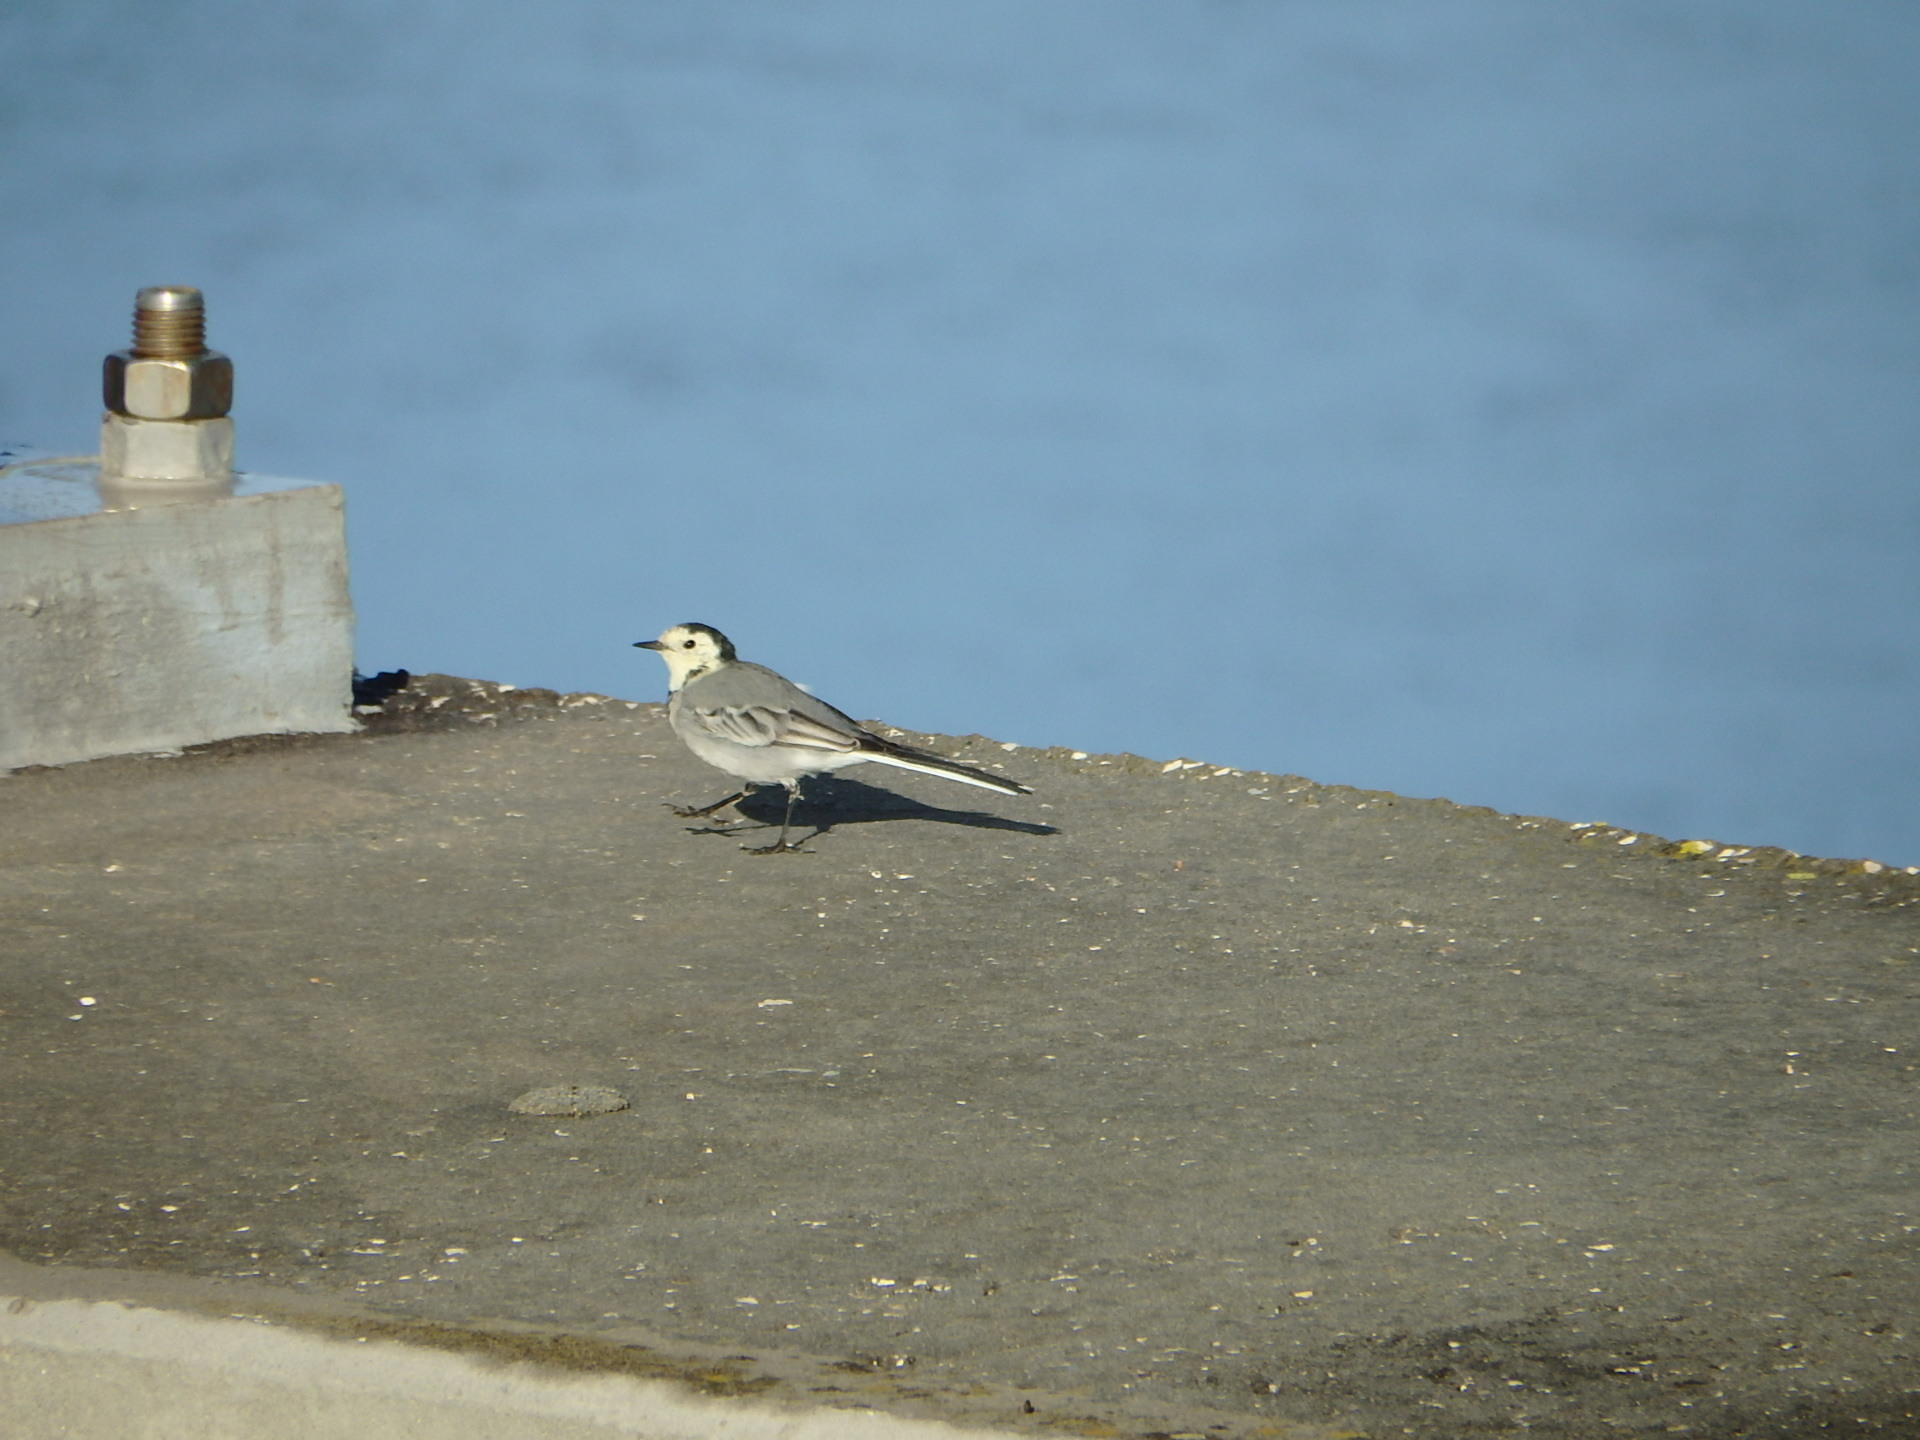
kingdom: Animalia
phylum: Chordata
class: Aves
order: Passeriformes
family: Motacillidae
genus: Motacilla
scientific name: Motacilla alba
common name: White wagtail
